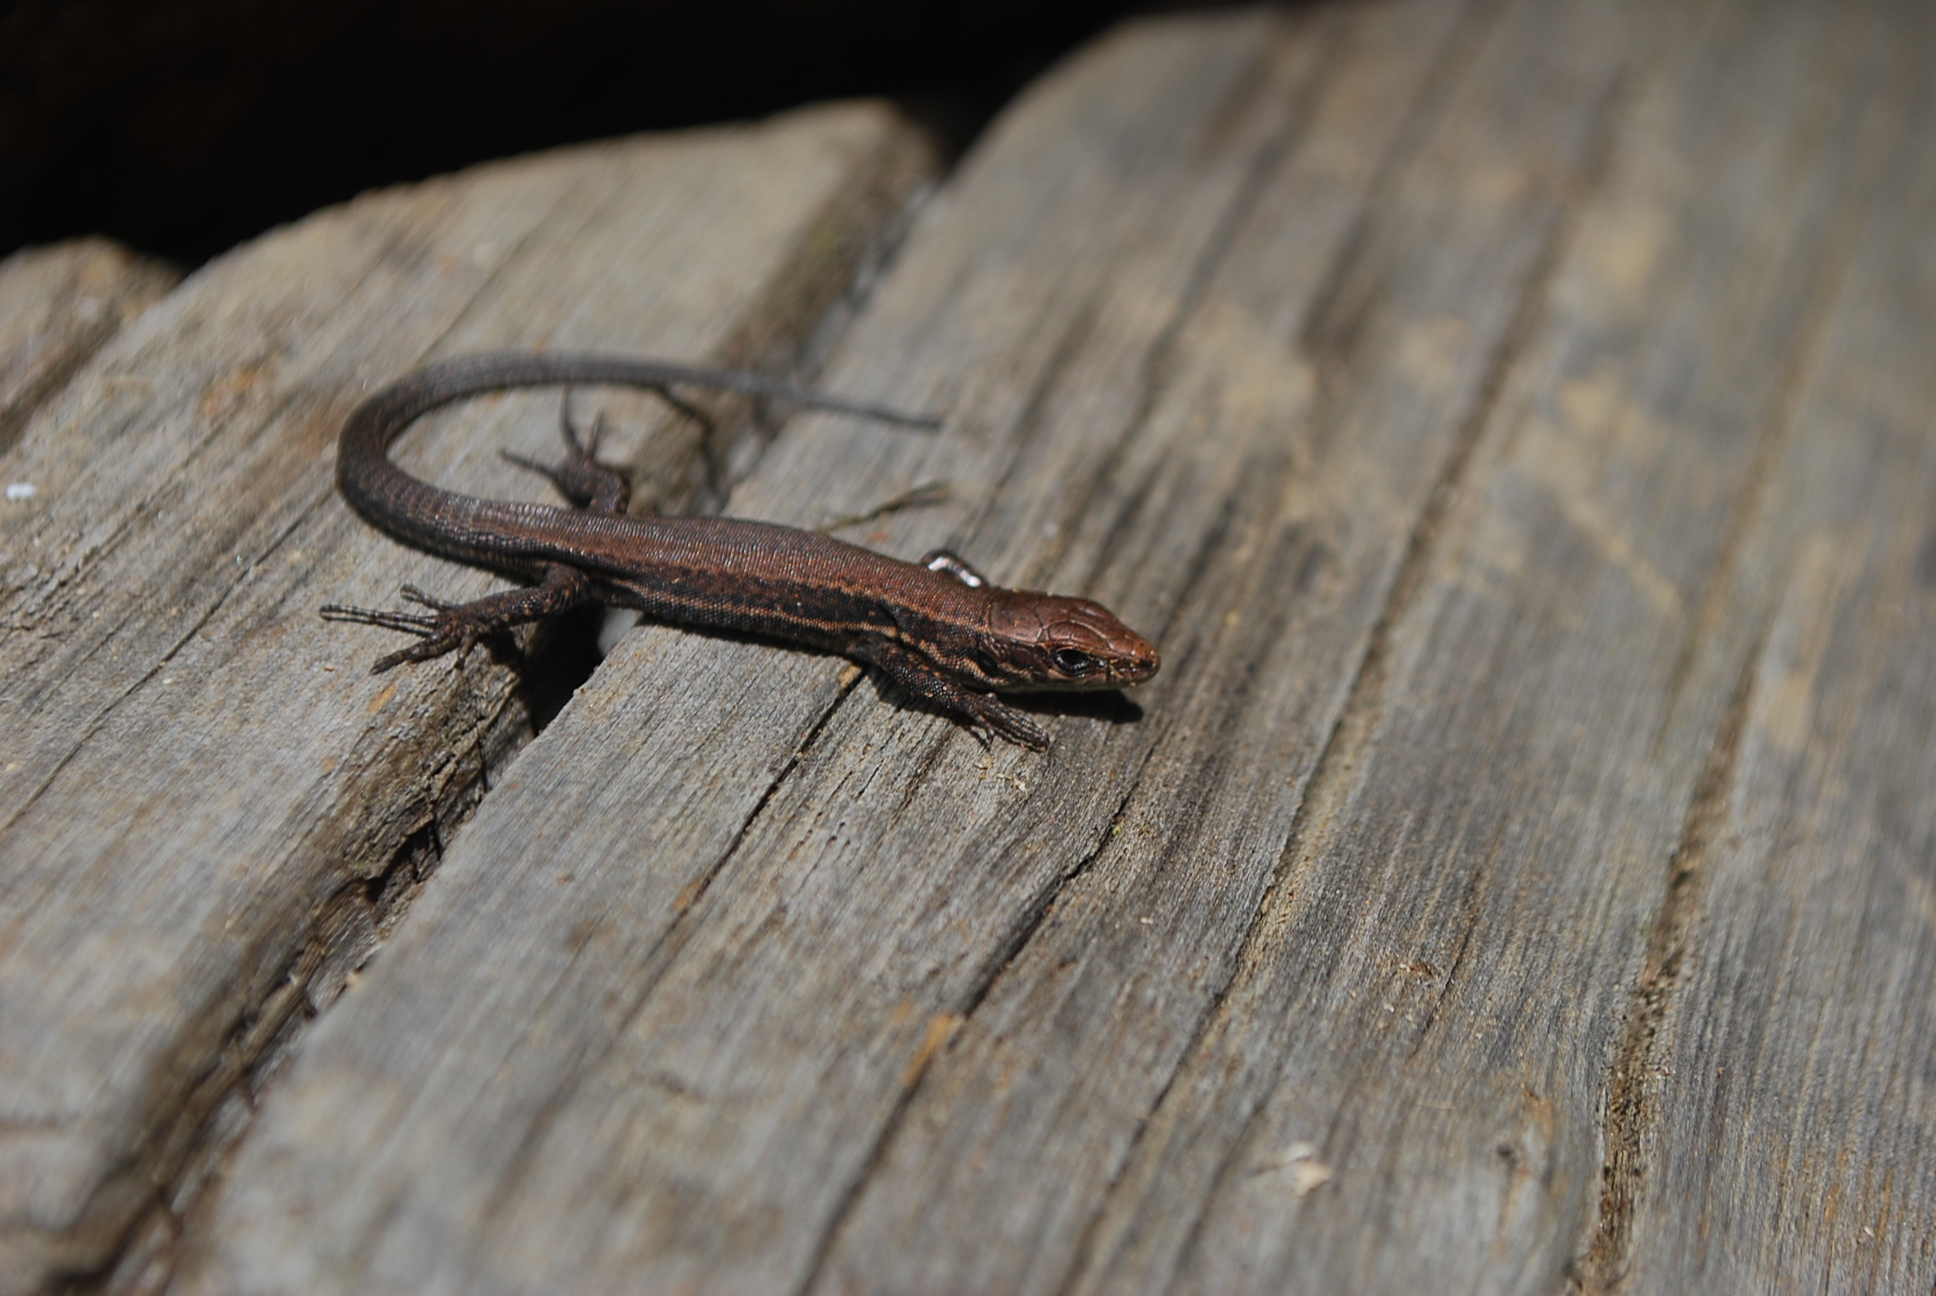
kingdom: Animalia
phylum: Chordata
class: Squamata
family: Lacertidae
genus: Podarcis
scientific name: Podarcis muralis
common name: Common wall lizard
